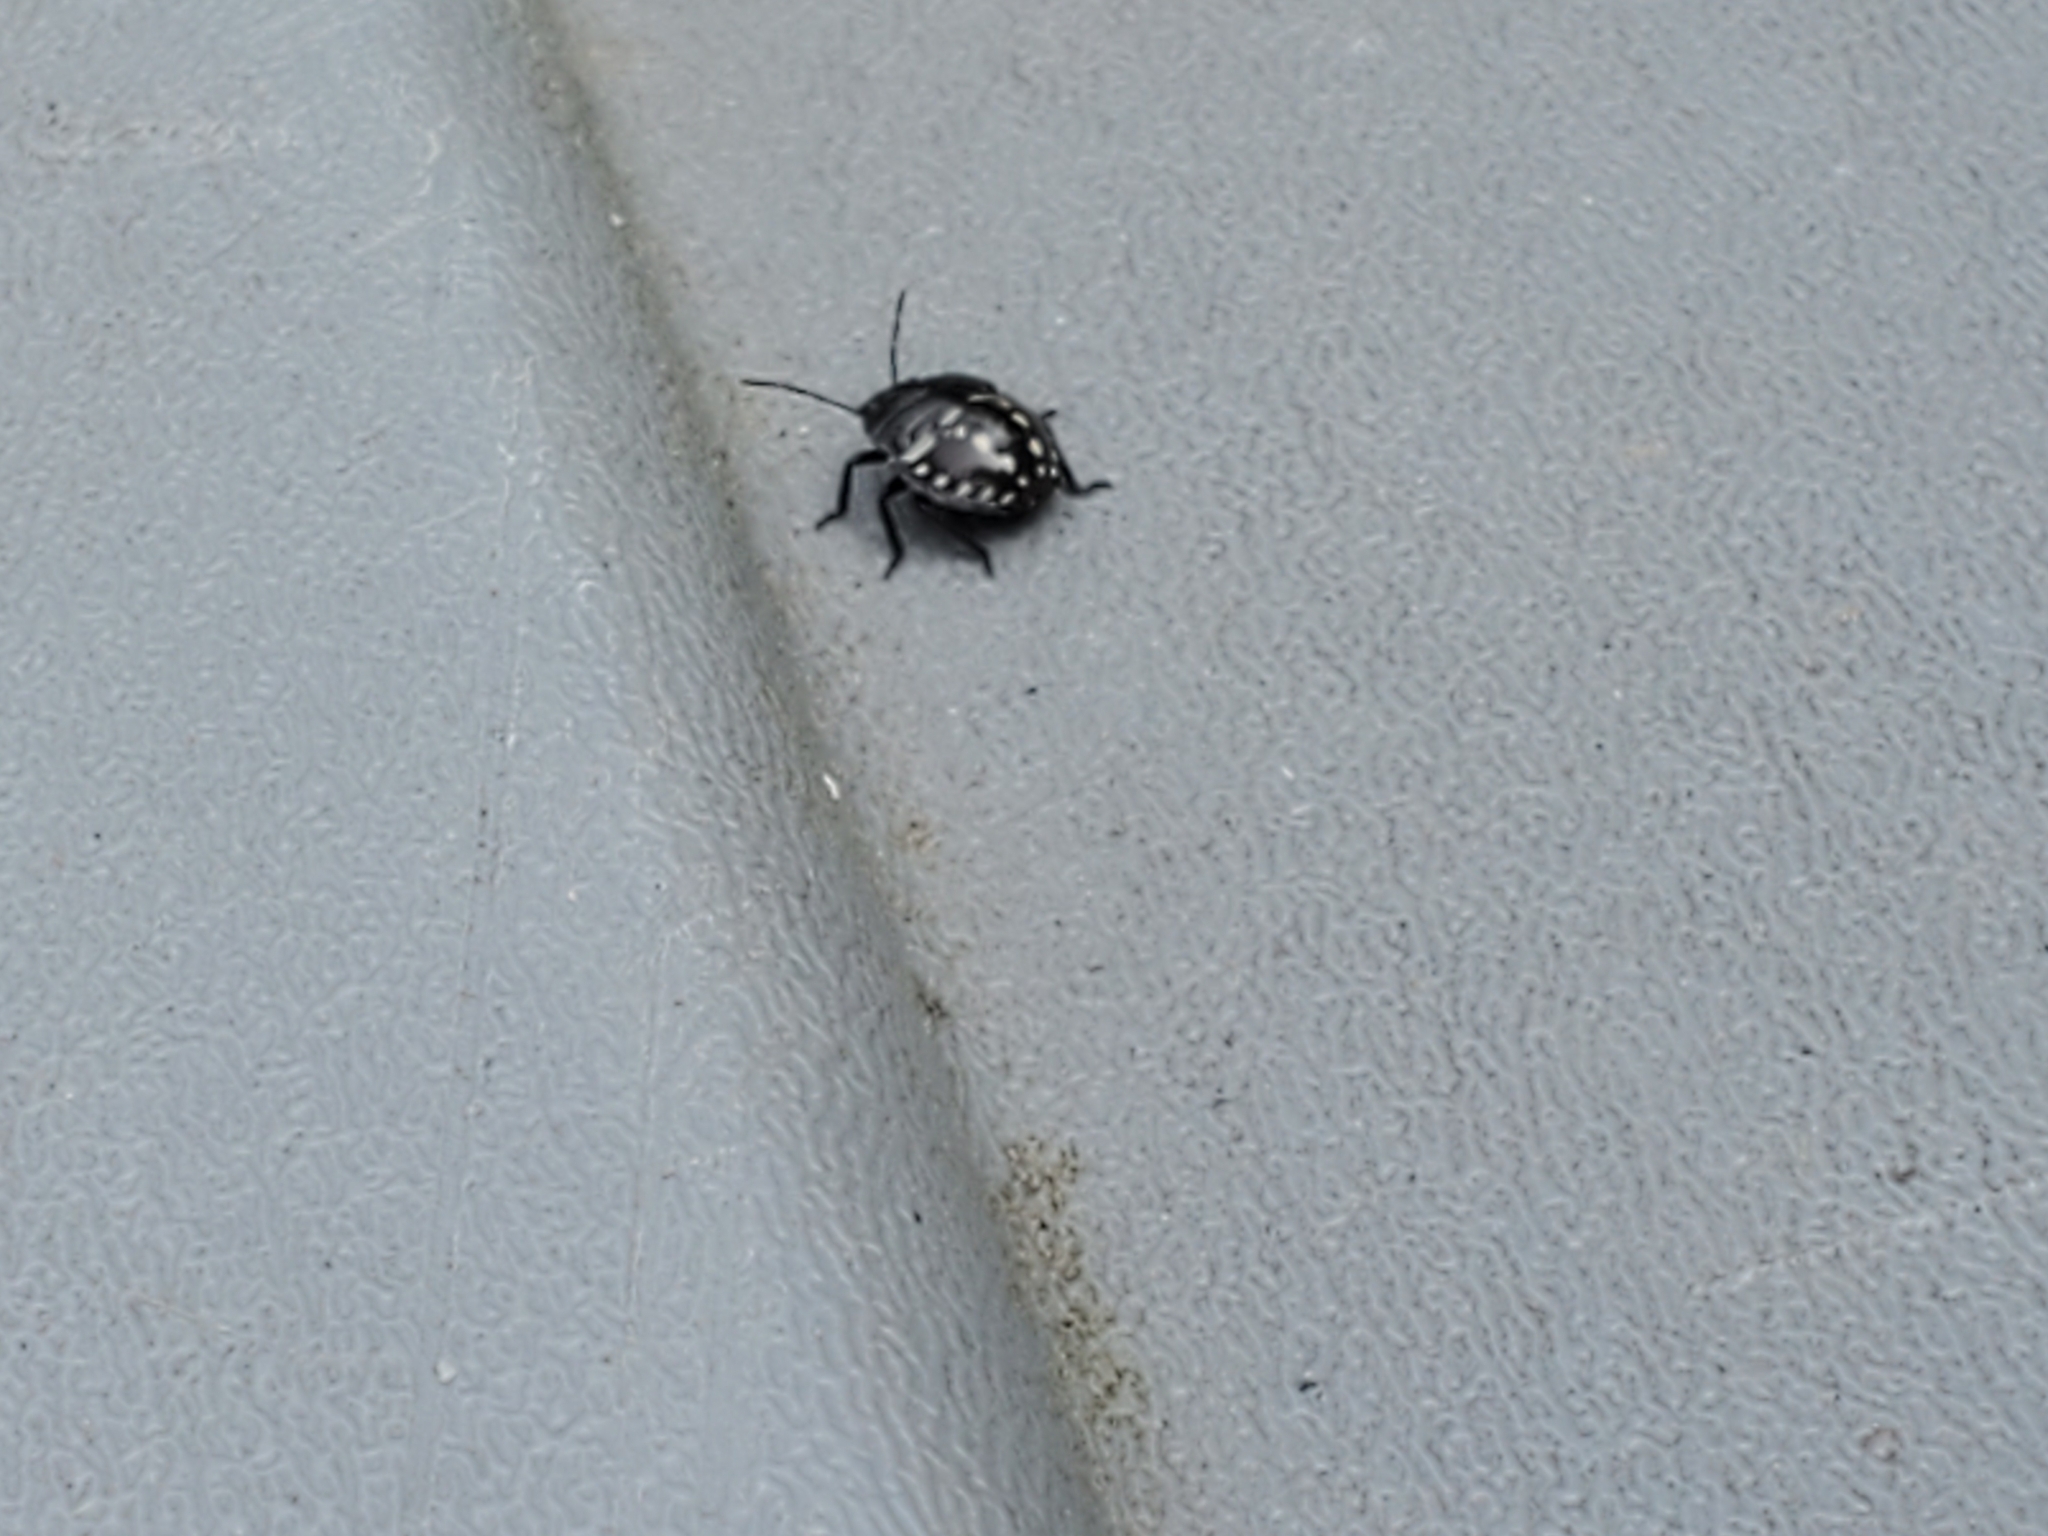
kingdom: Animalia
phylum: Arthropoda
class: Insecta
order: Hemiptera
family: Pentatomidae
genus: Nezara
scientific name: Nezara viridula
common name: Southern green stink bug
